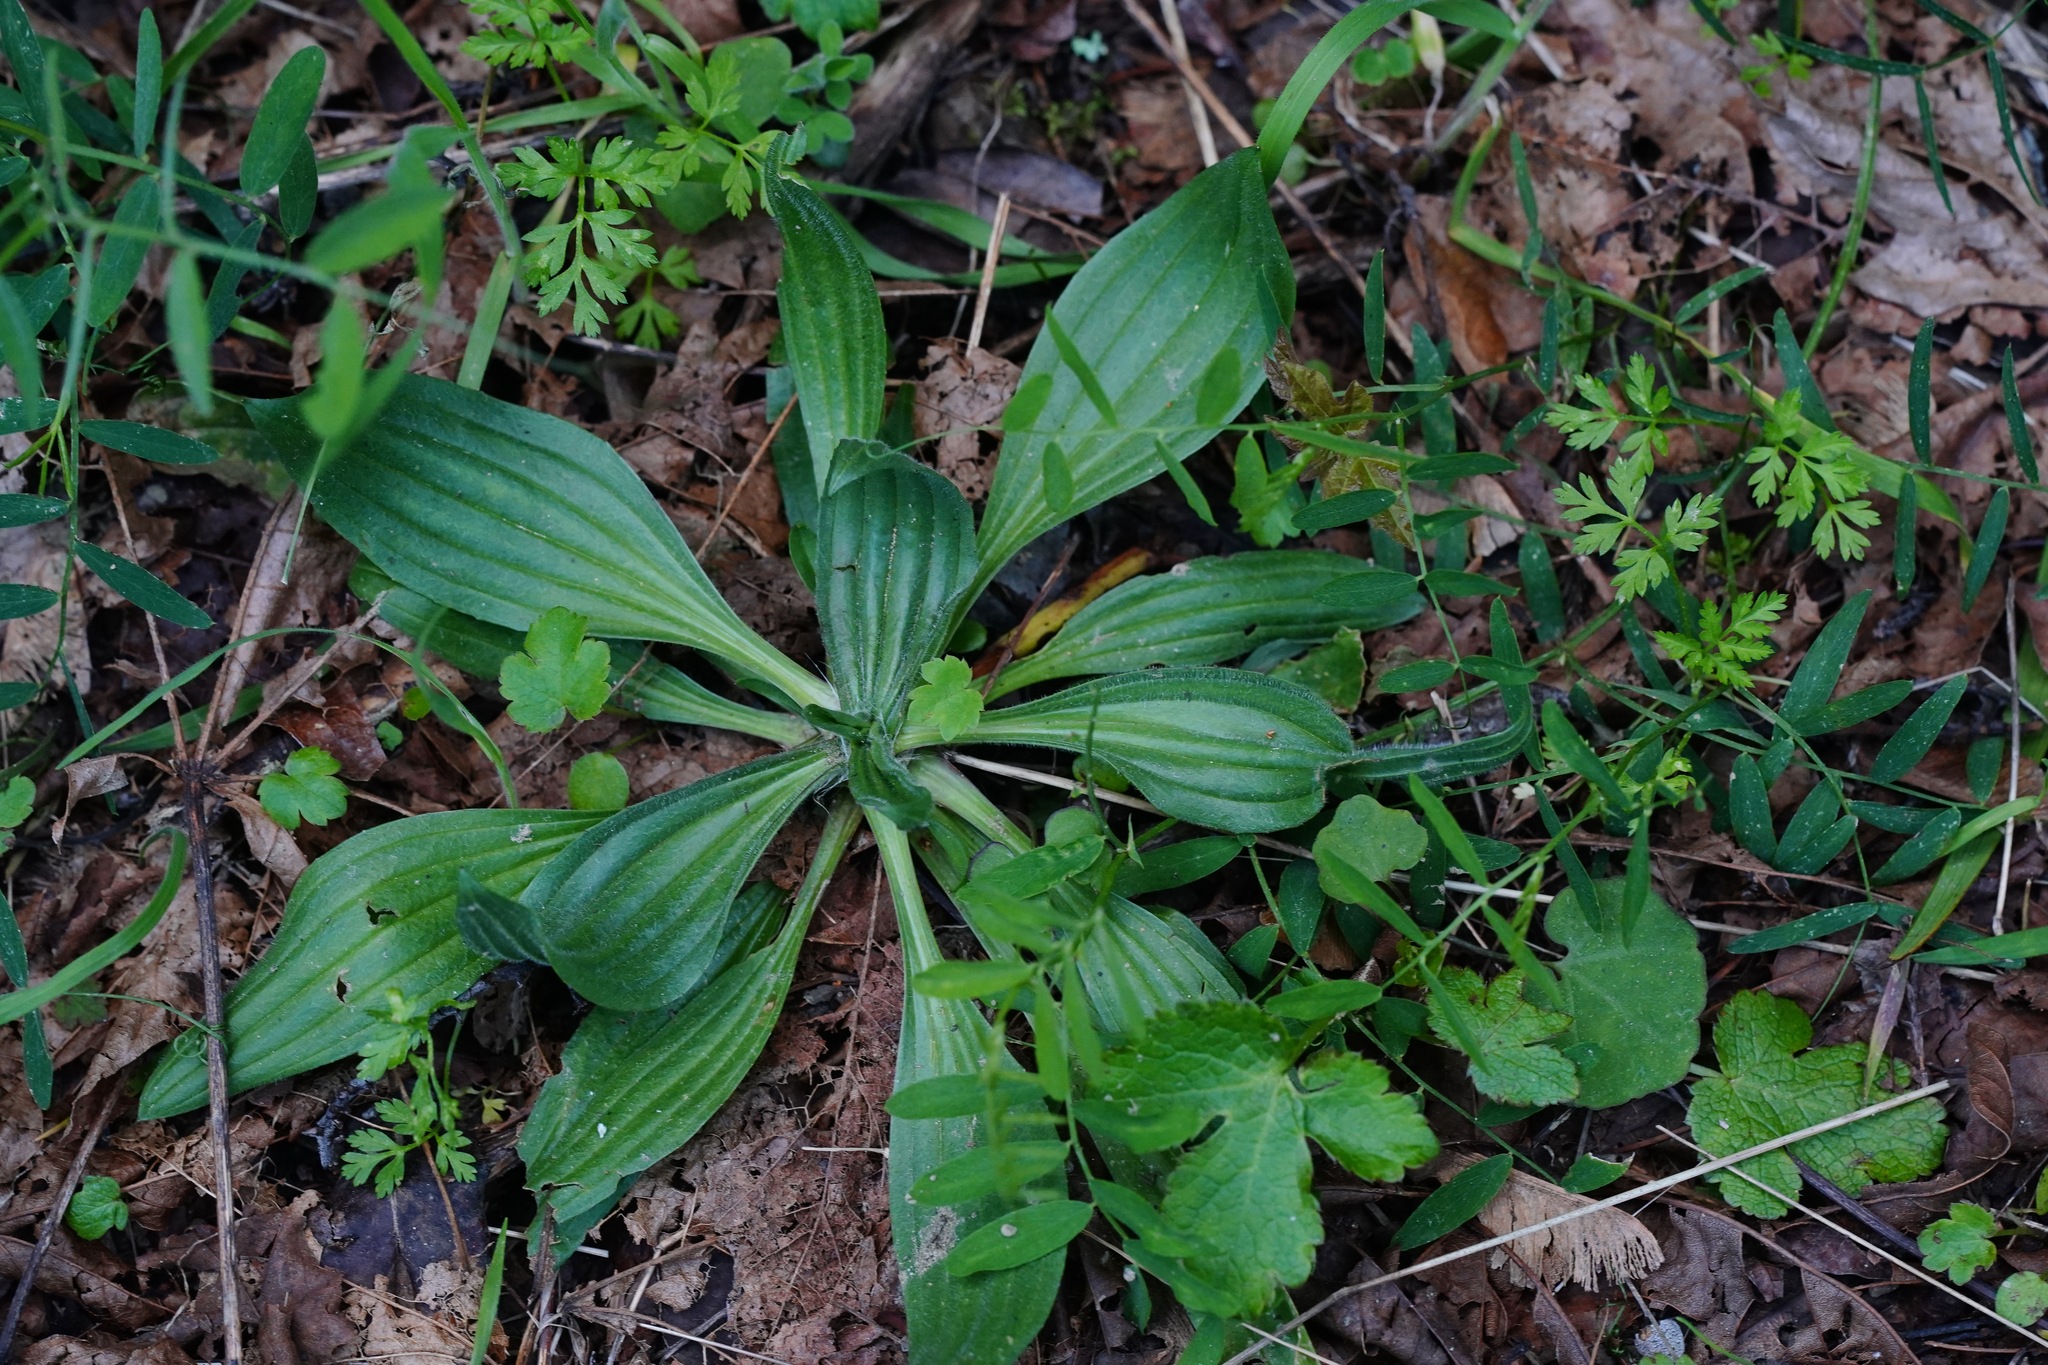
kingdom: Plantae
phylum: Tracheophyta
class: Magnoliopsida
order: Lamiales
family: Plantaginaceae
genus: Plantago
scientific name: Plantago lanceolata
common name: Ribwort plantain
